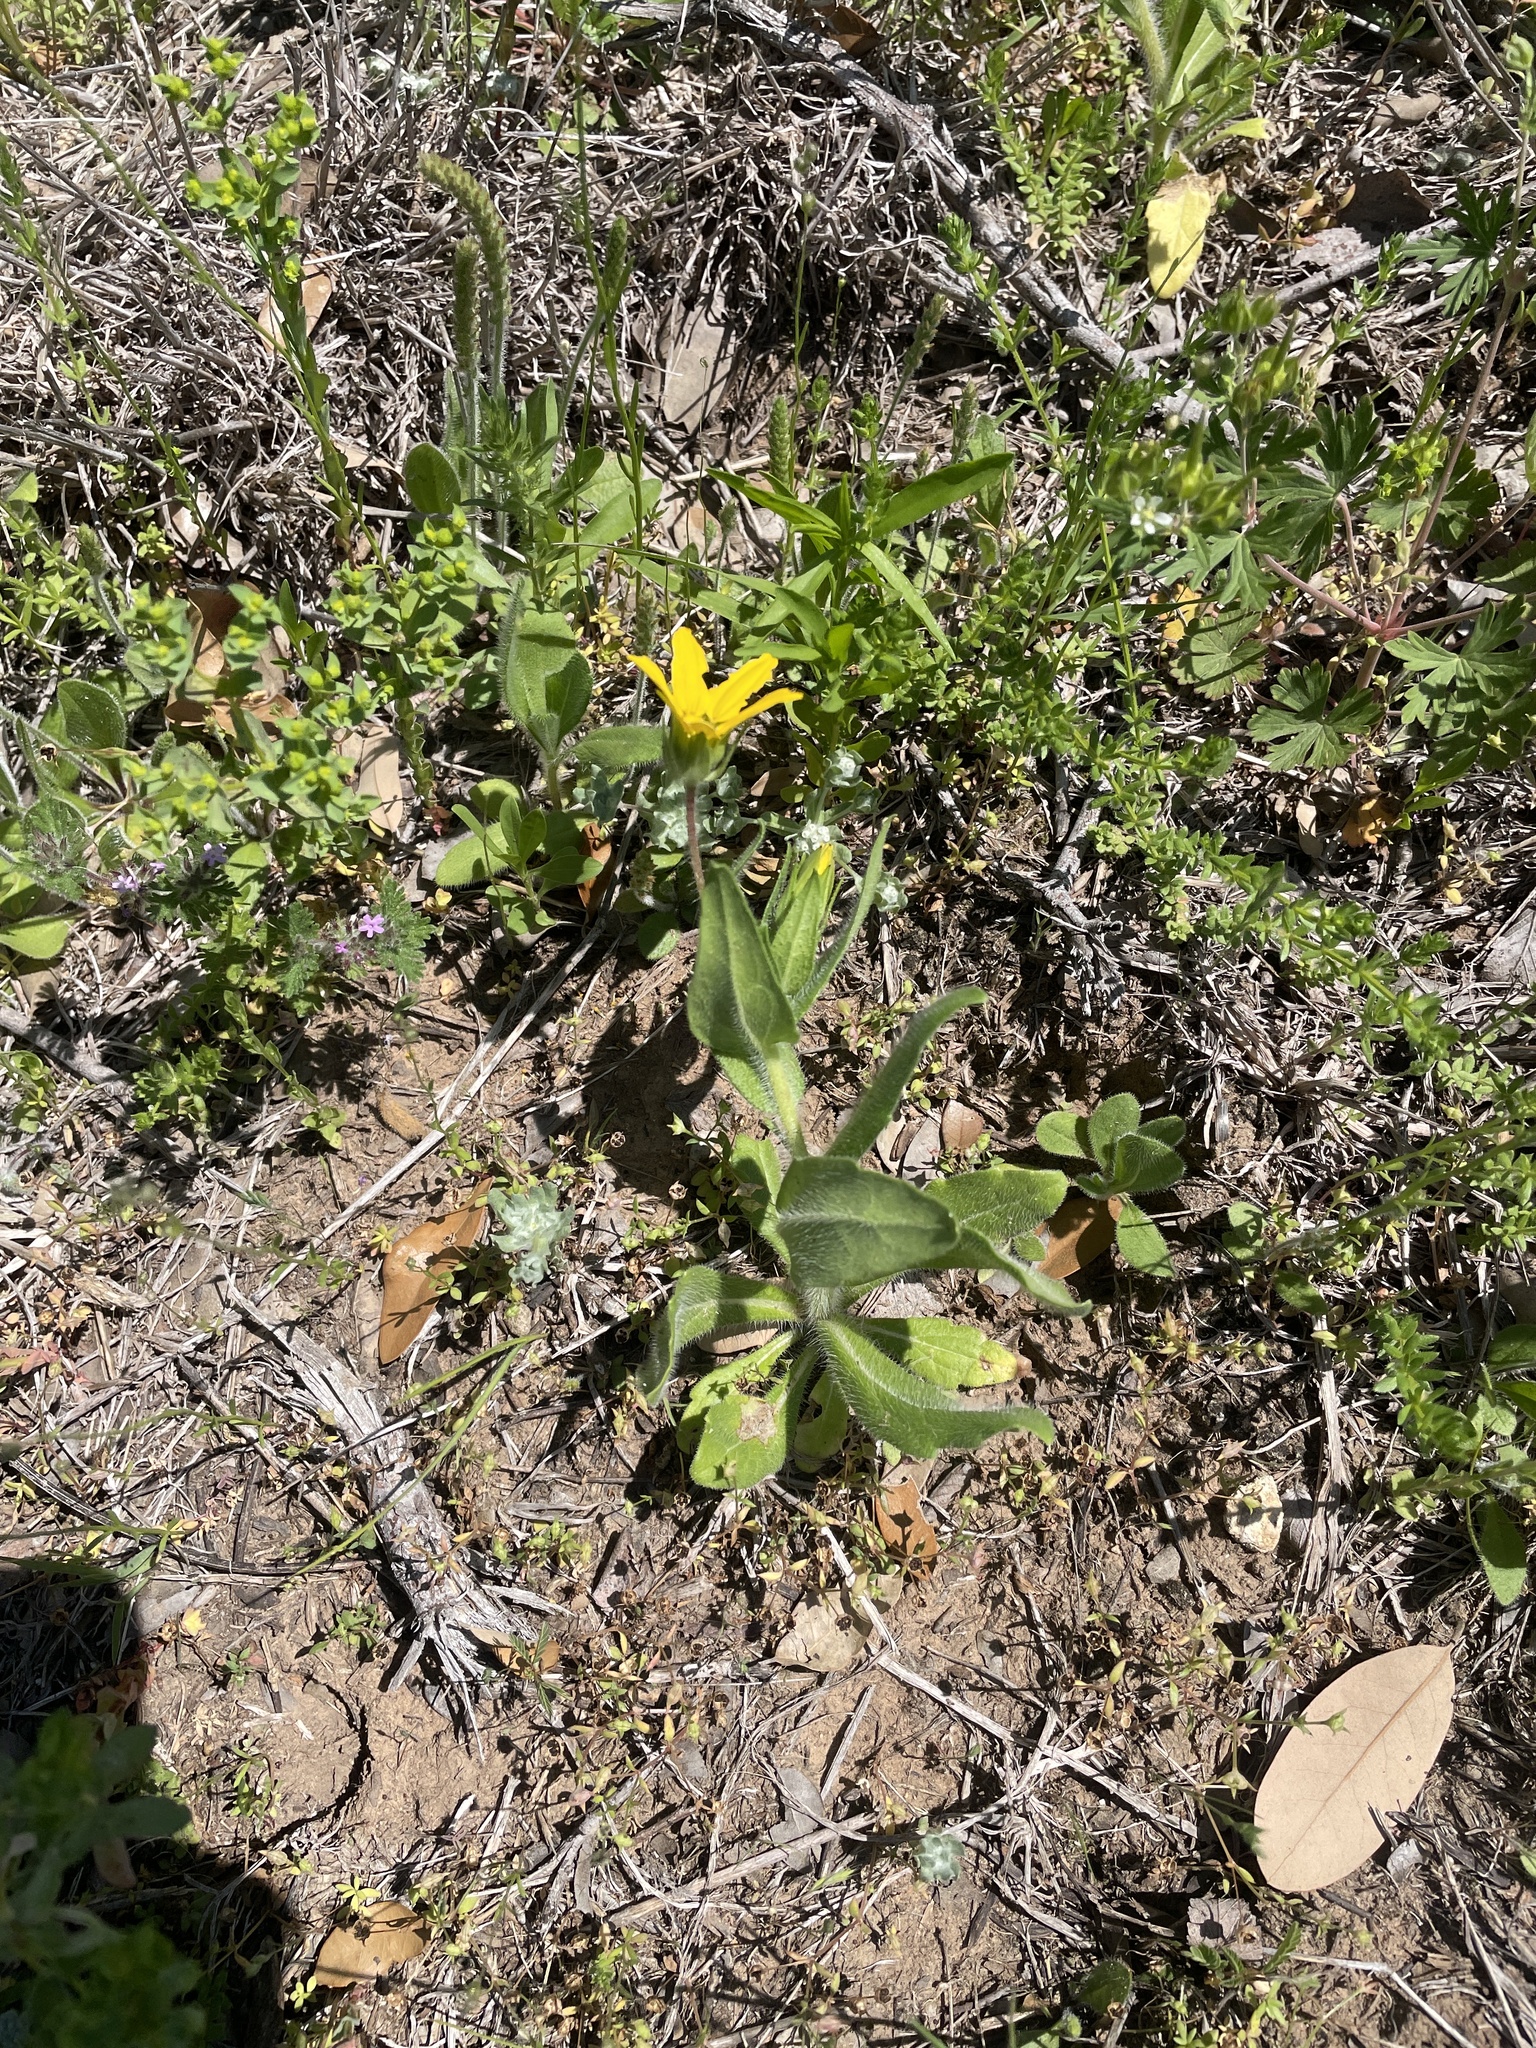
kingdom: Plantae
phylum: Tracheophyta
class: Magnoliopsida
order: Asterales
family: Asteraceae
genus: Lindheimera
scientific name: Lindheimera texana
